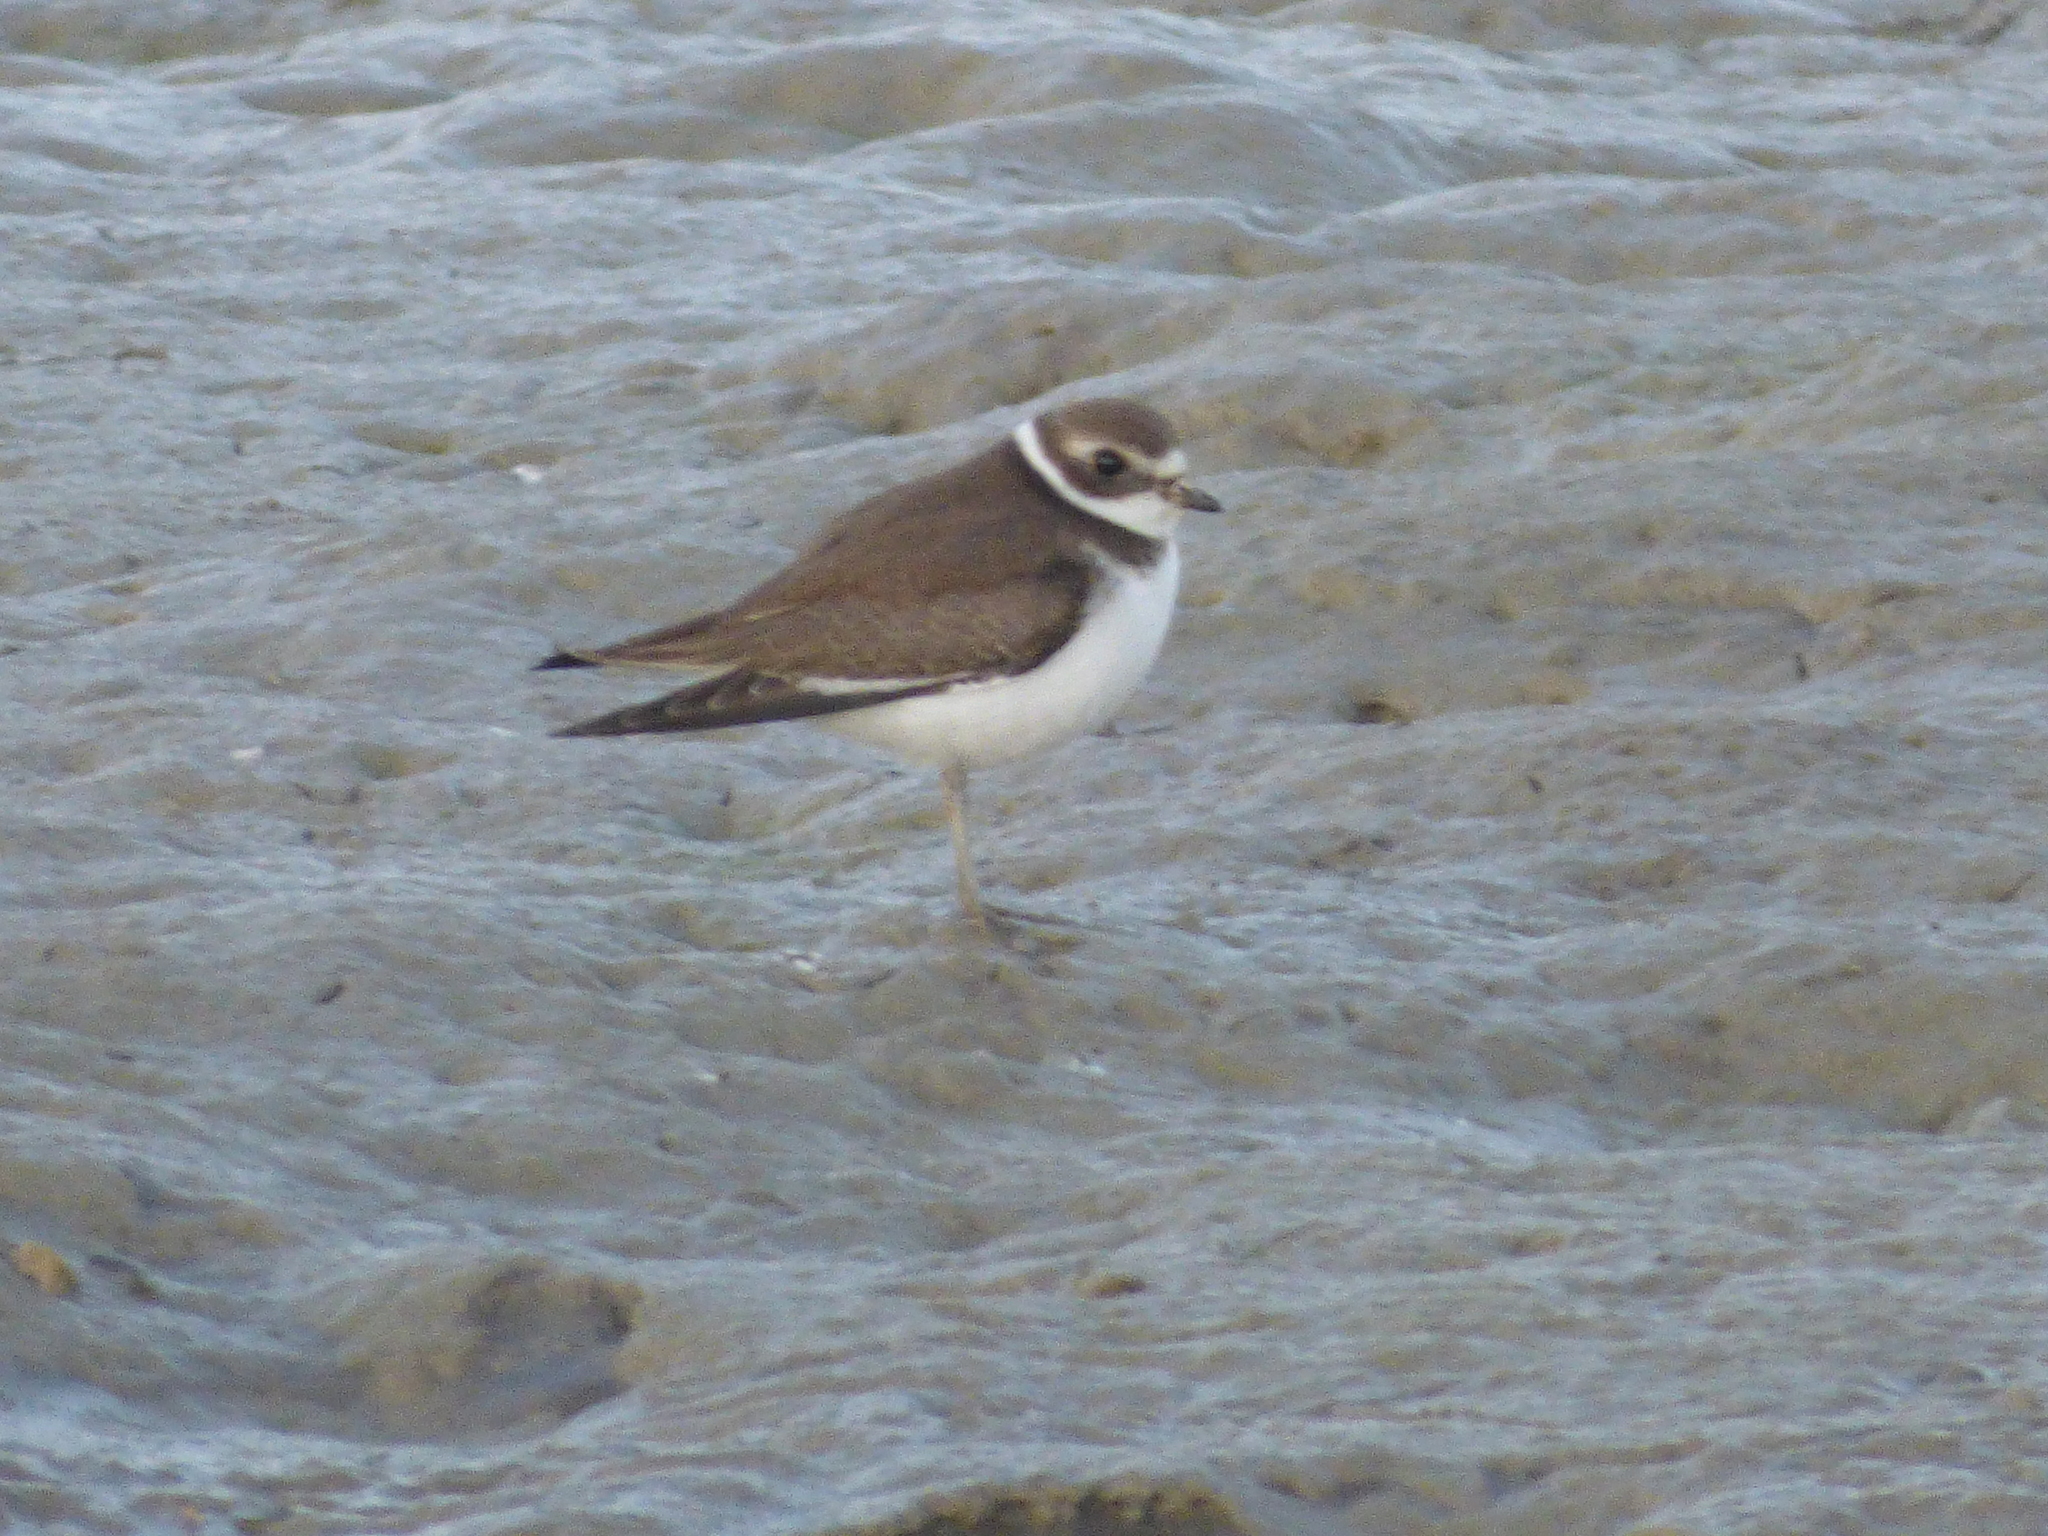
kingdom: Animalia
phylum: Chordata
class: Aves
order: Charadriiformes
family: Charadriidae
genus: Charadrius
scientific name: Charadrius semipalmatus
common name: Semipalmated plover
